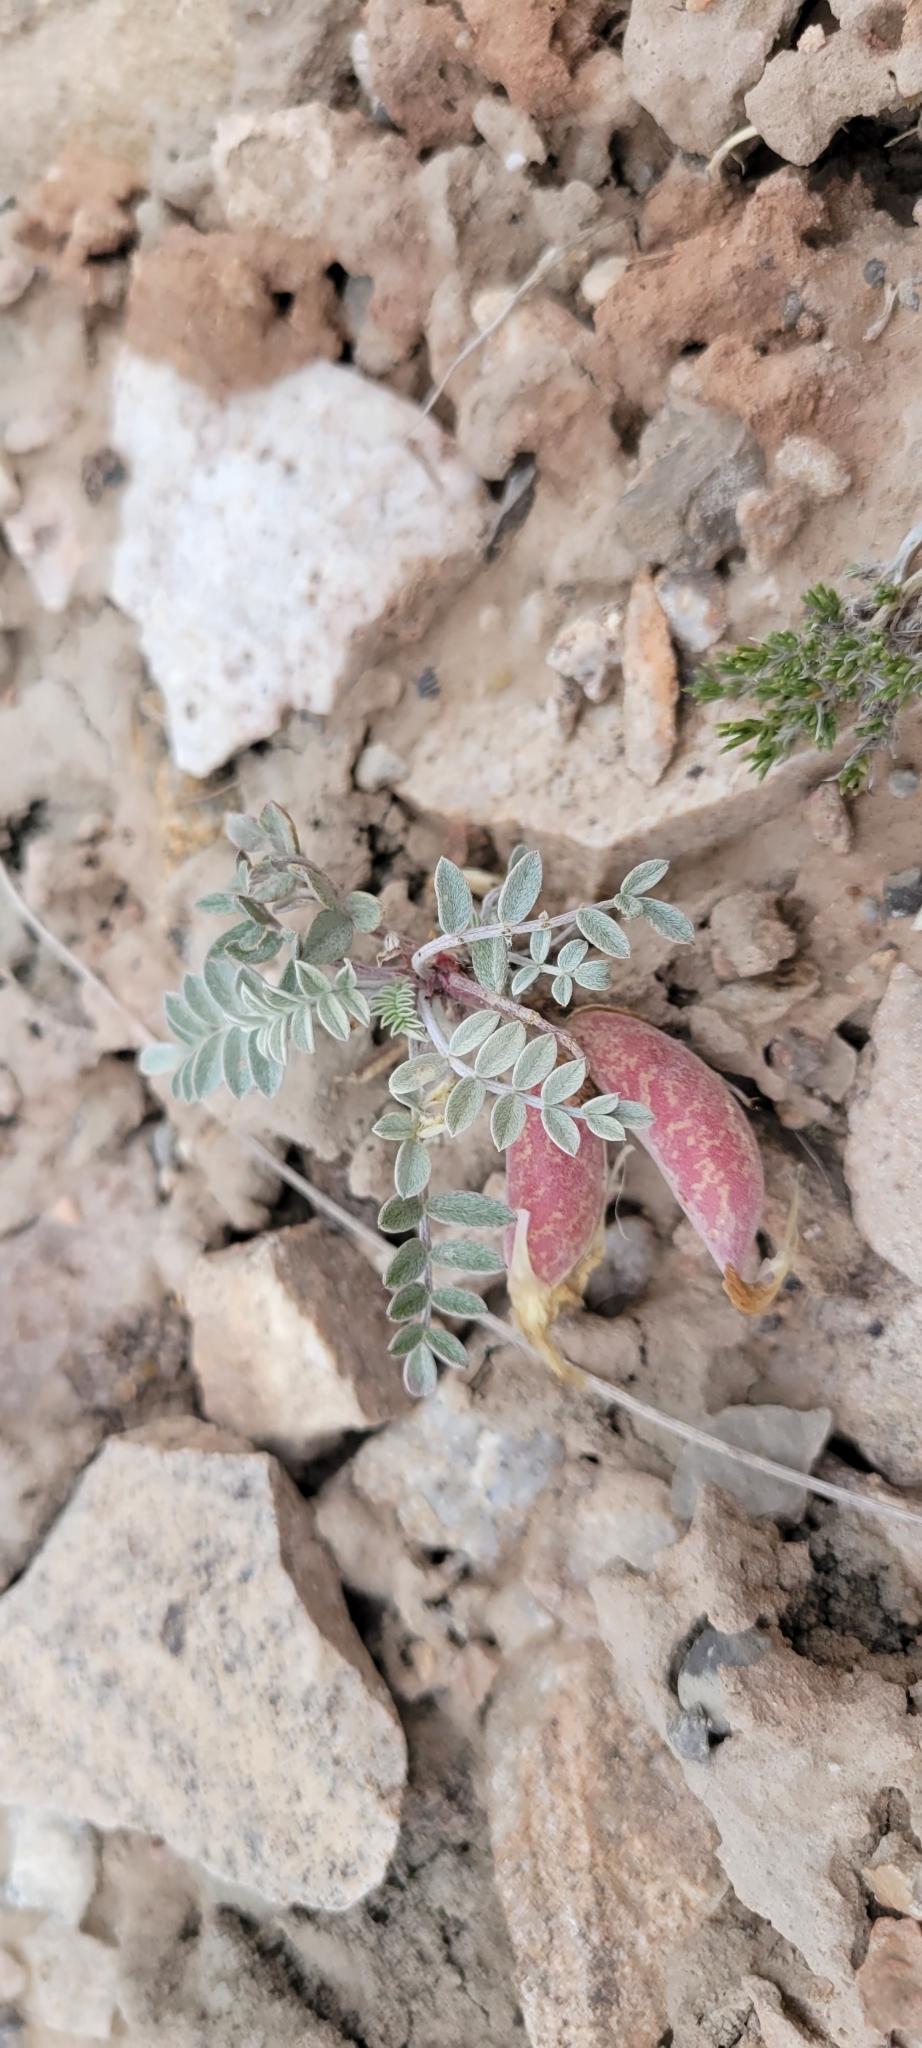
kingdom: Plantae
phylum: Tracheophyta
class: Magnoliopsida
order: Fabales
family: Fabaceae
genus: Astragalus
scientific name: Astragalus chamaeleuce
